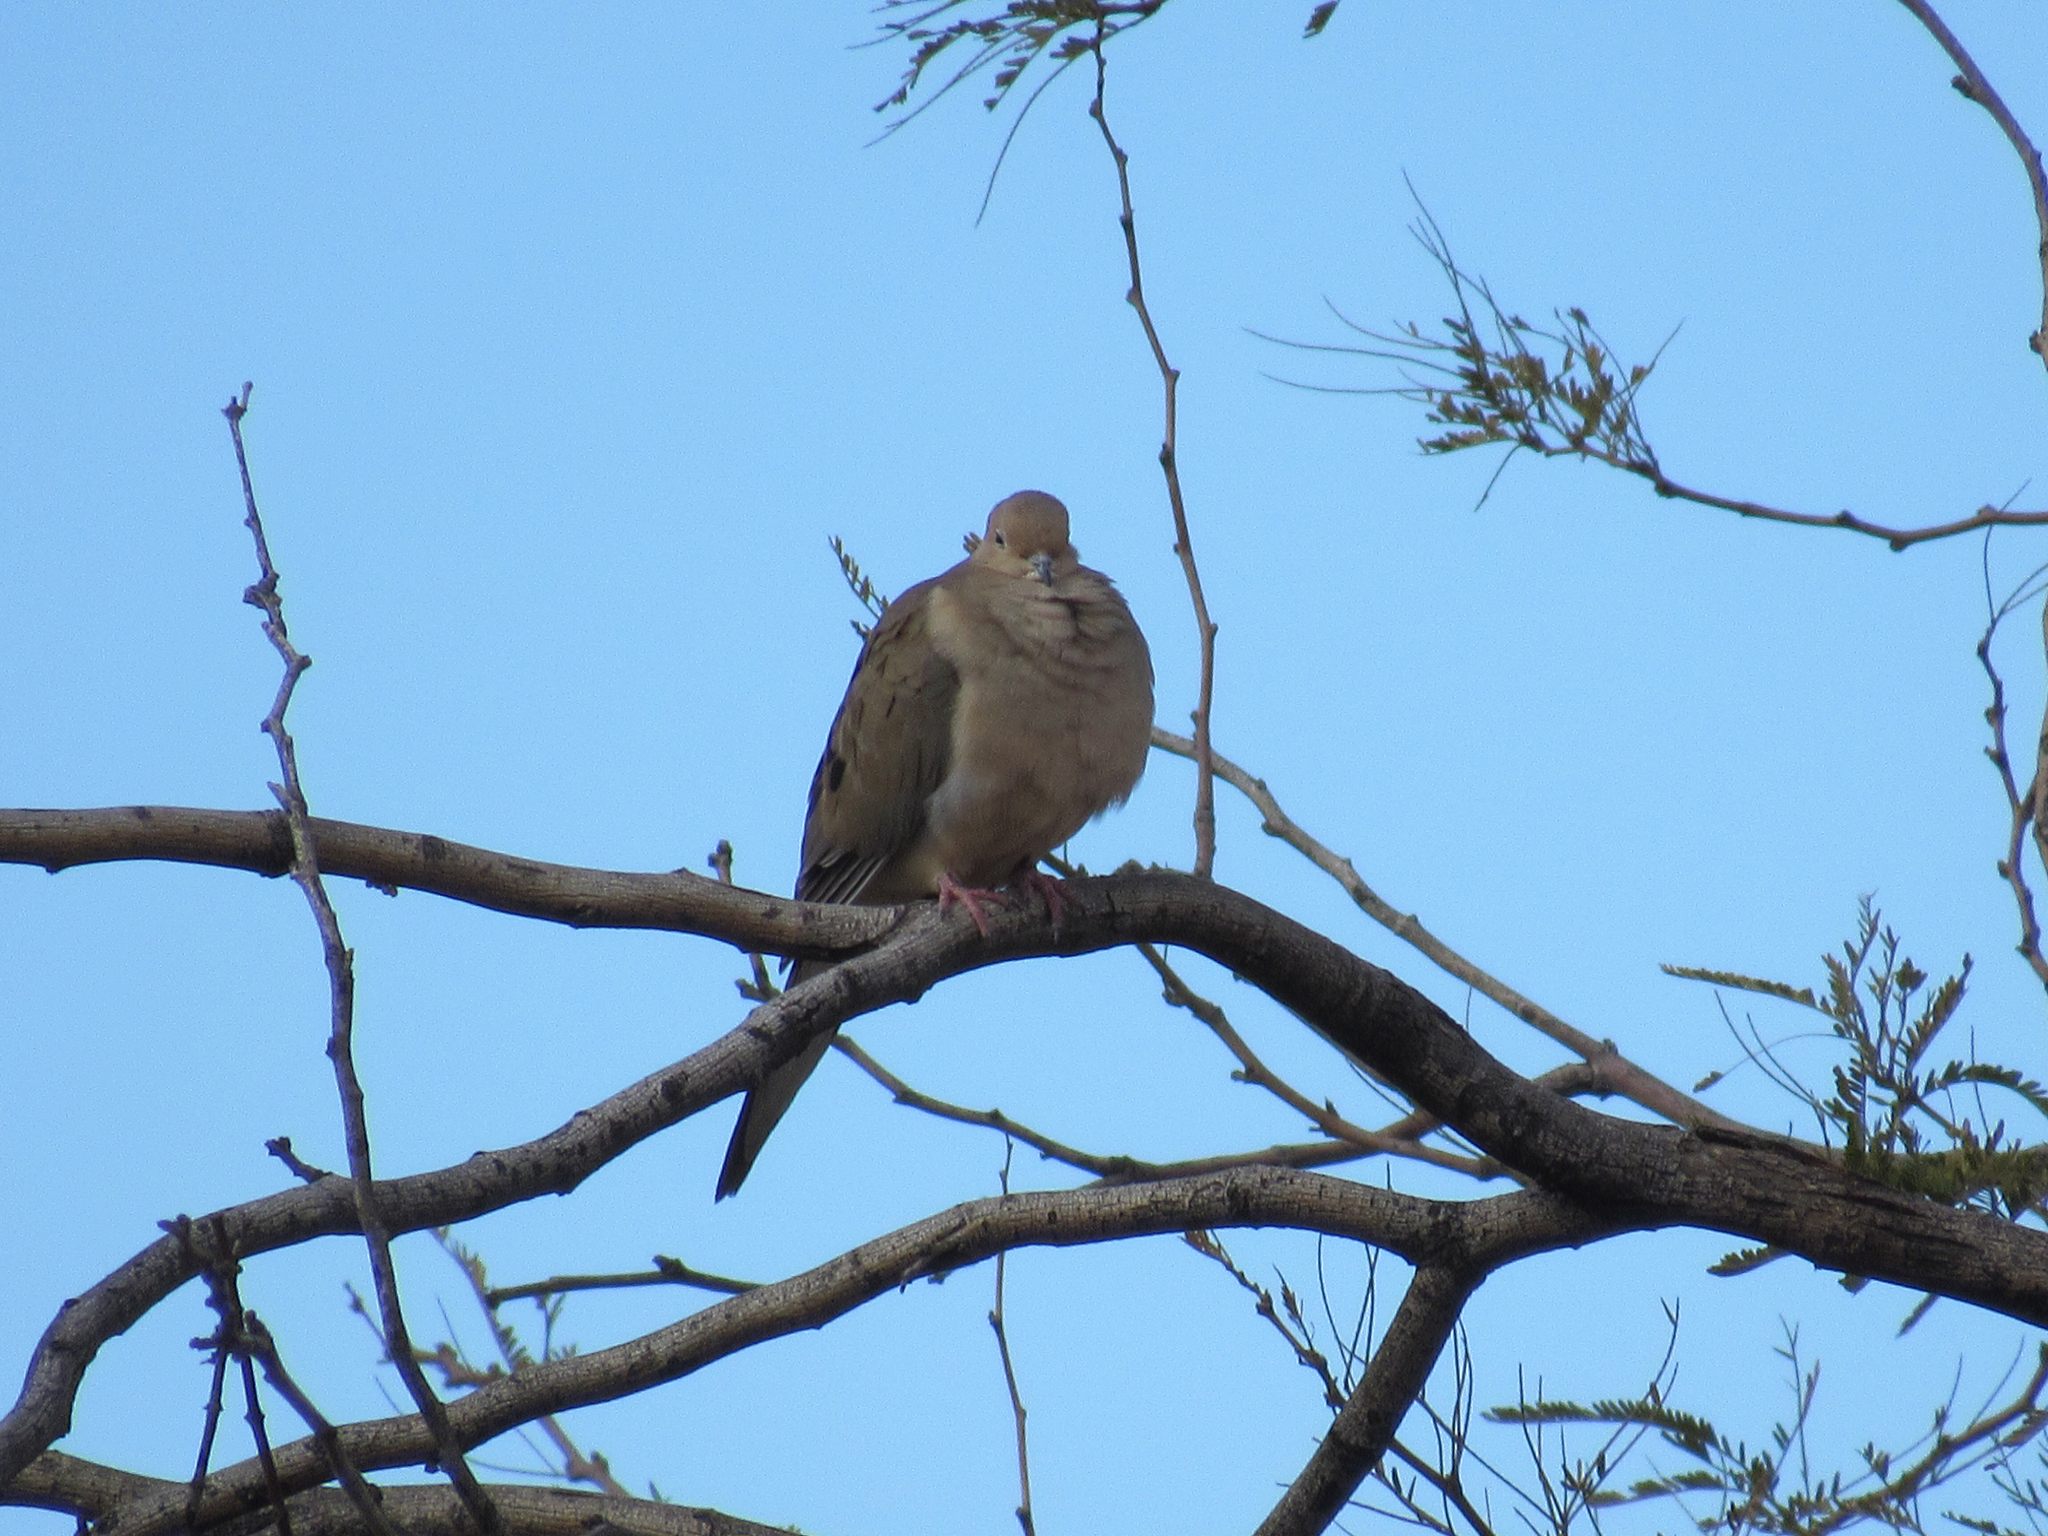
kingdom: Animalia
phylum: Chordata
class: Aves
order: Columbiformes
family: Columbidae
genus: Zenaida
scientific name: Zenaida macroura
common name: Mourning dove
